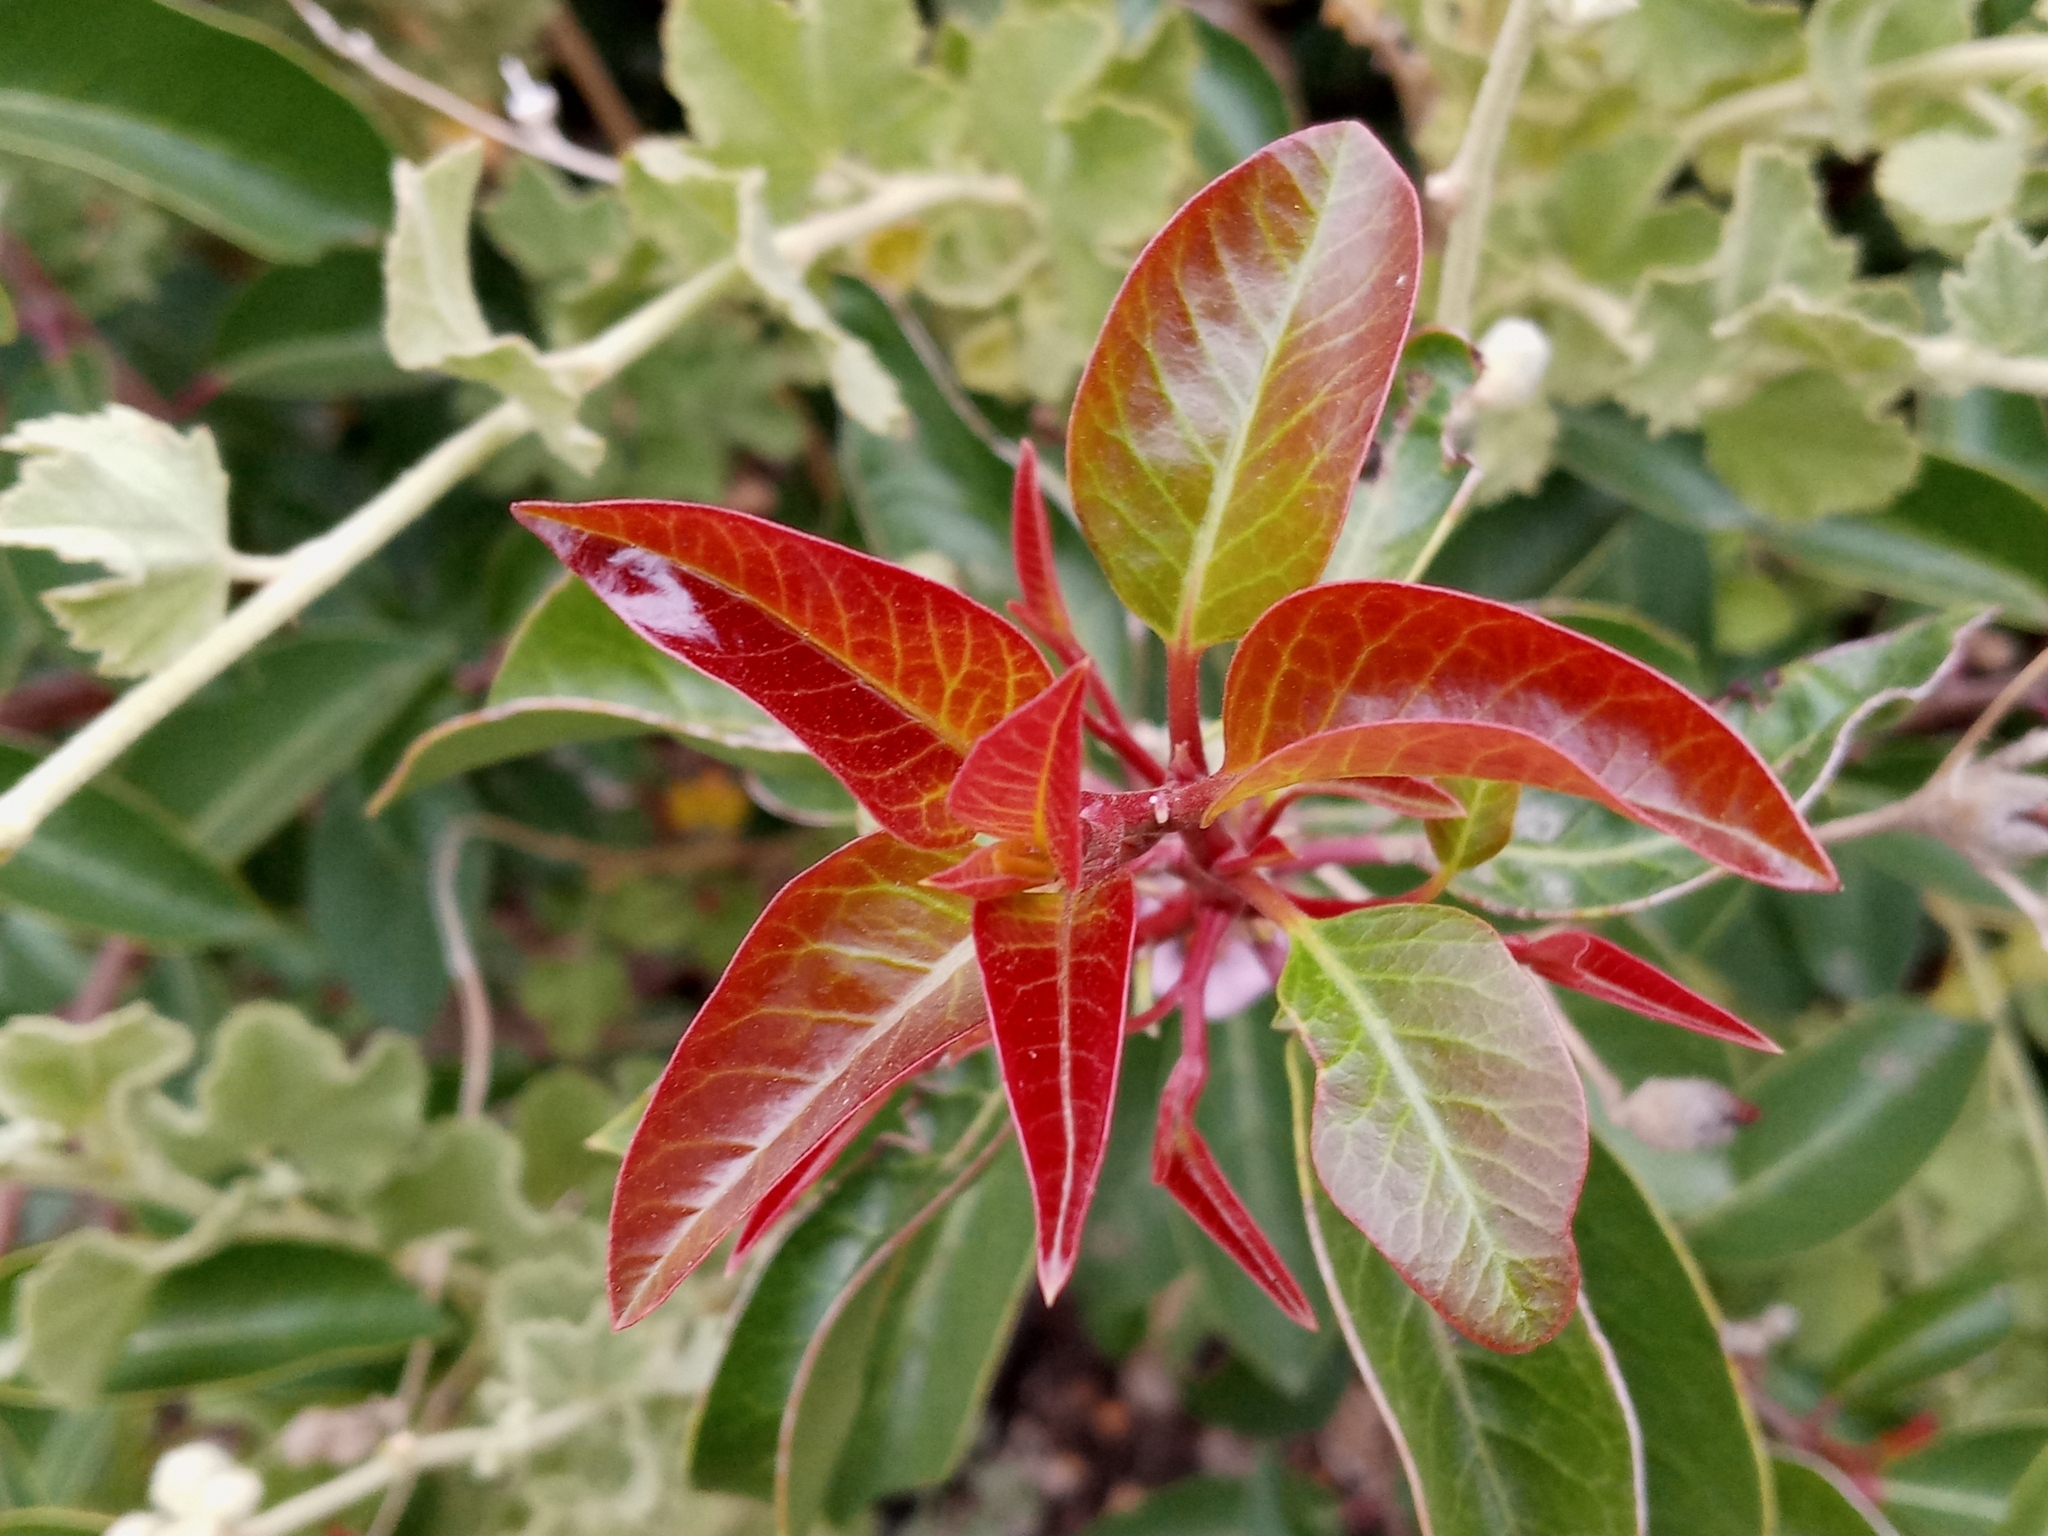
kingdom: Plantae
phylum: Tracheophyta
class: Magnoliopsida
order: Sapindales
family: Anacardiaceae
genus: Rhus
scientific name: Rhus ovata
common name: Sugar sumac
